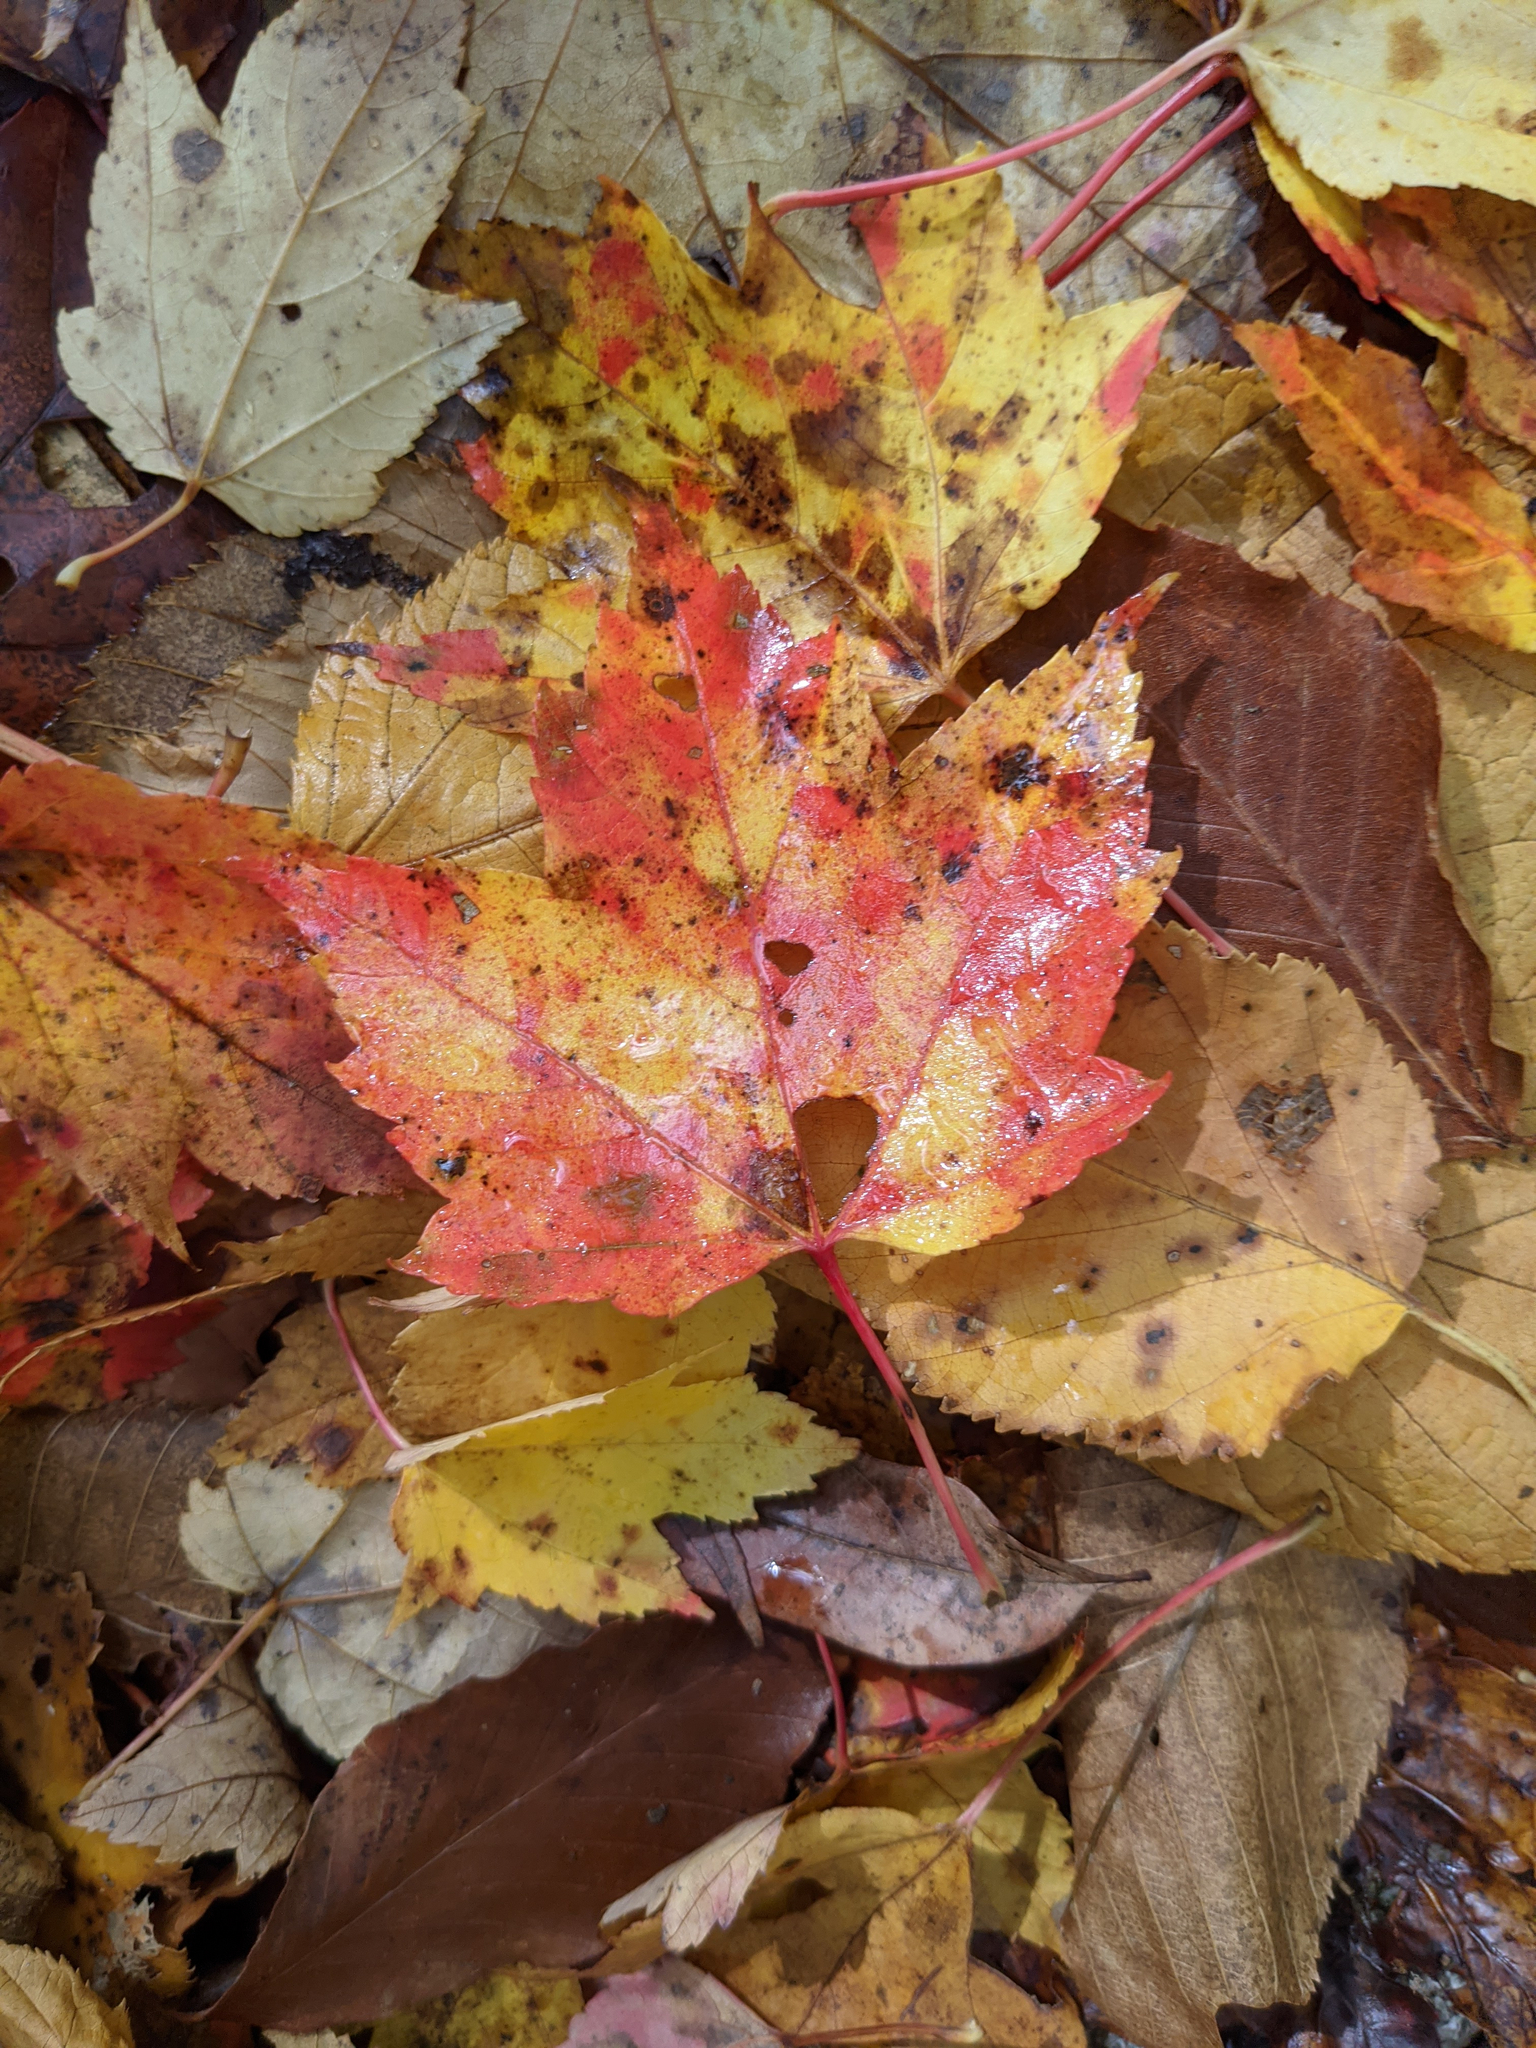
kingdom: Plantae
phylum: Tracheophyta
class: Magnoliopsida
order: Sapindales
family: Sapindaceae
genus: Acer
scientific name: Acer rubrum
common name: Red maple
